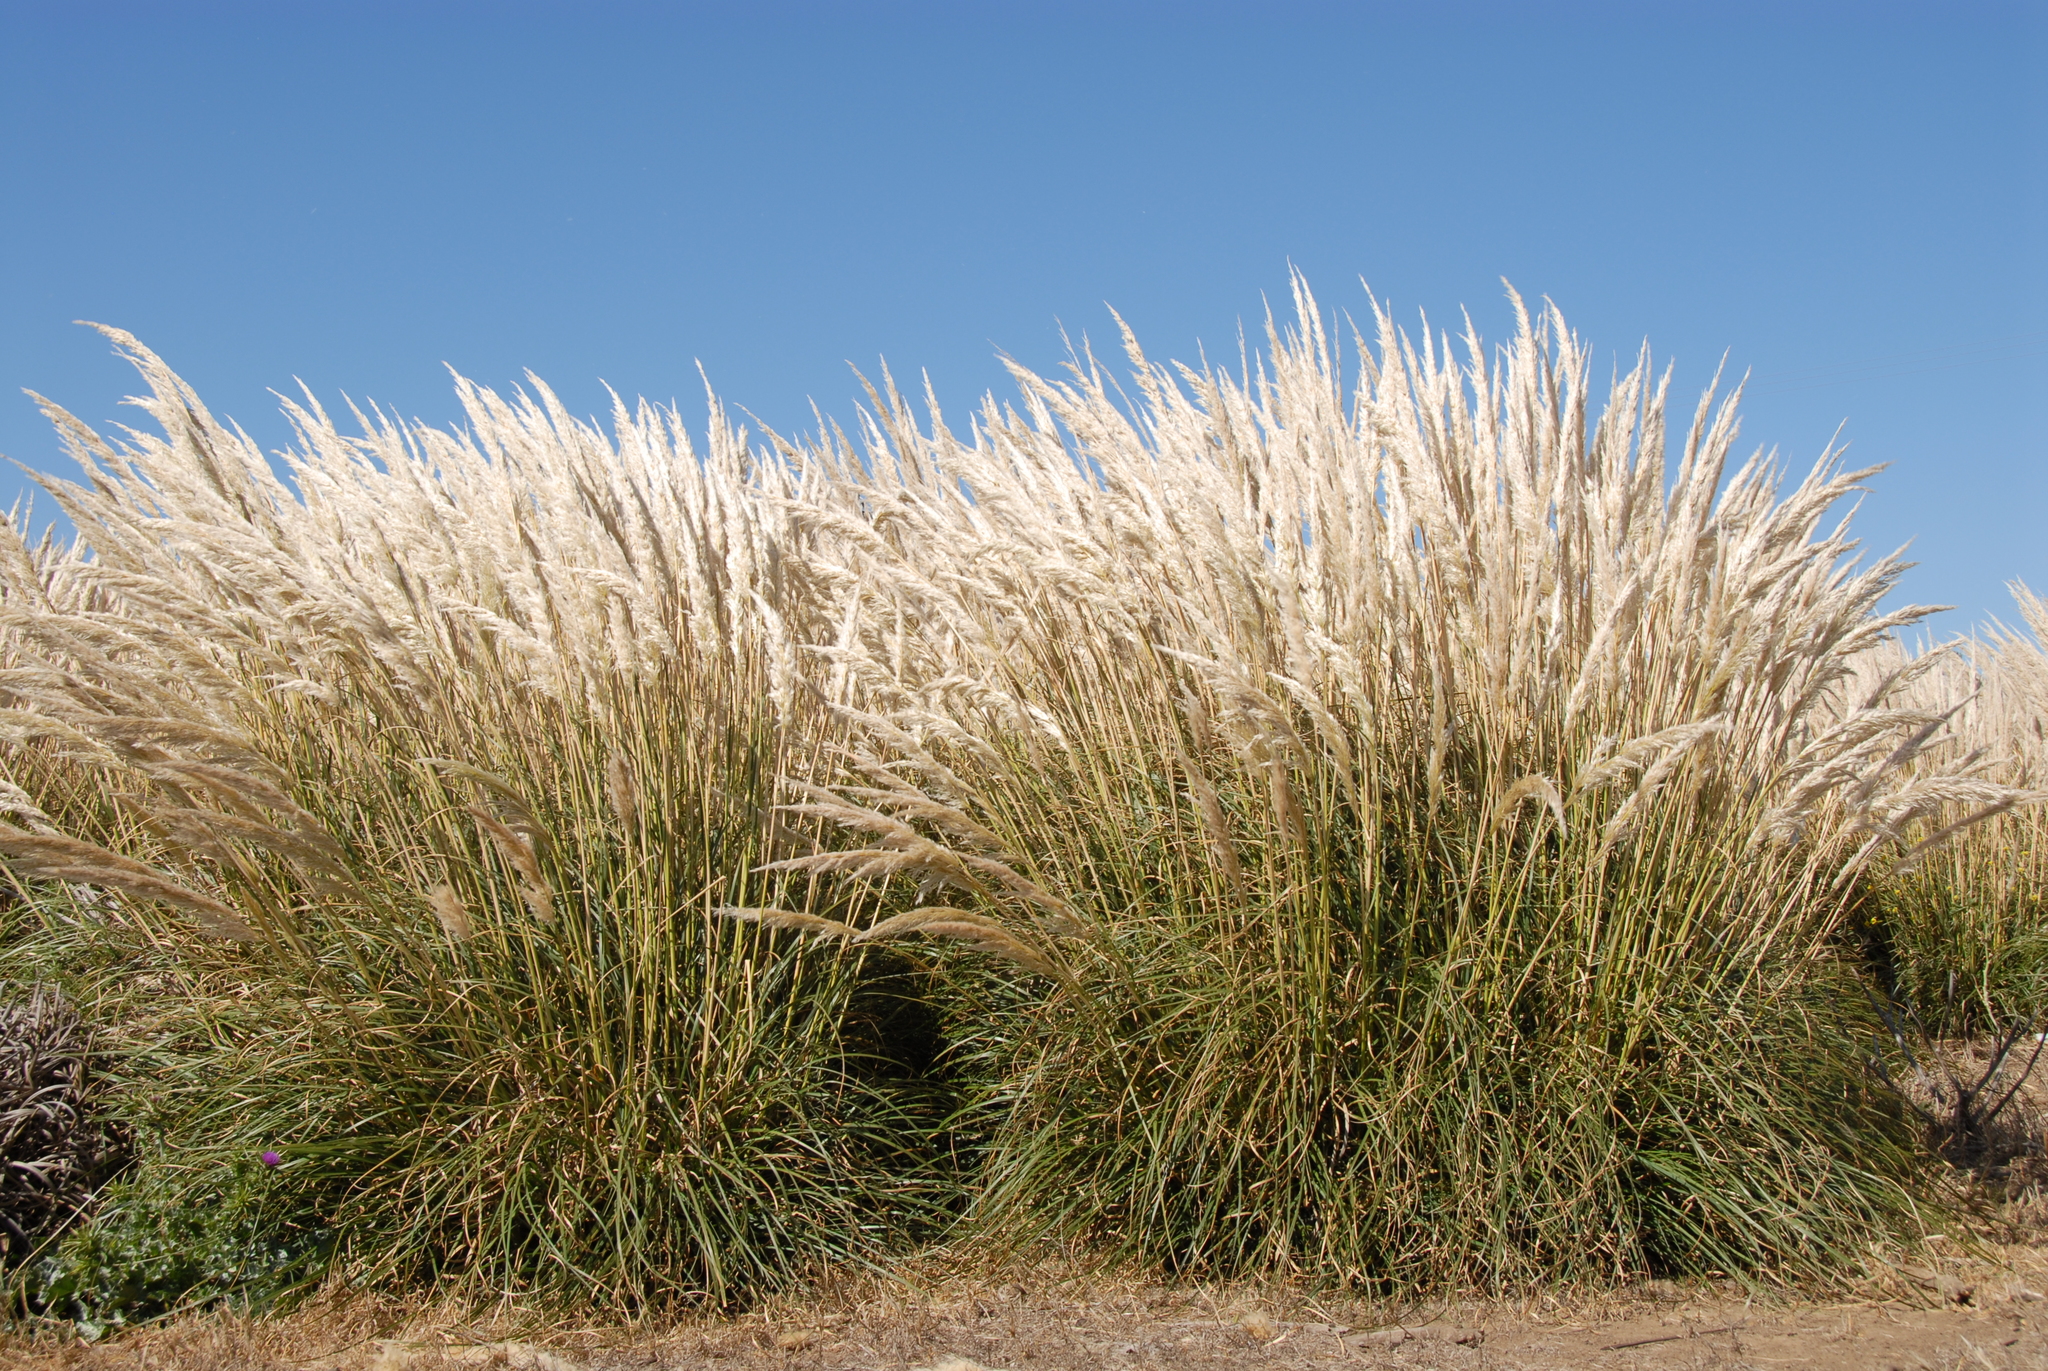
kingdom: Plantae
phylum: Tracheophyta
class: Liliopsida
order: Poales
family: Poaceae
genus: Cortaderia
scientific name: Cortaderia selloana
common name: Uruguayan pampas grass
